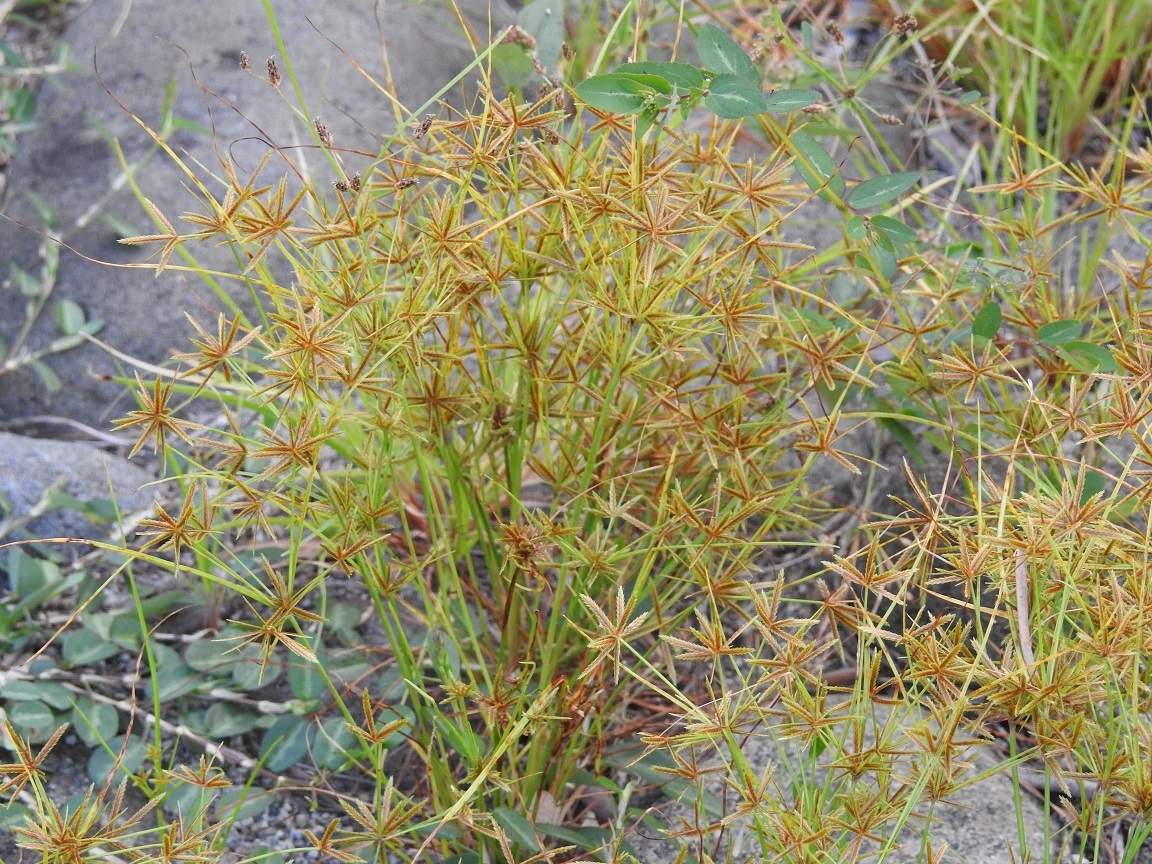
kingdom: Plantae
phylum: Tracheophyta
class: Liliopsida
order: Poales
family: Cyperaceae
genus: Cyperus
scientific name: Cyperus amabilis
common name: Foothill flat sedge
